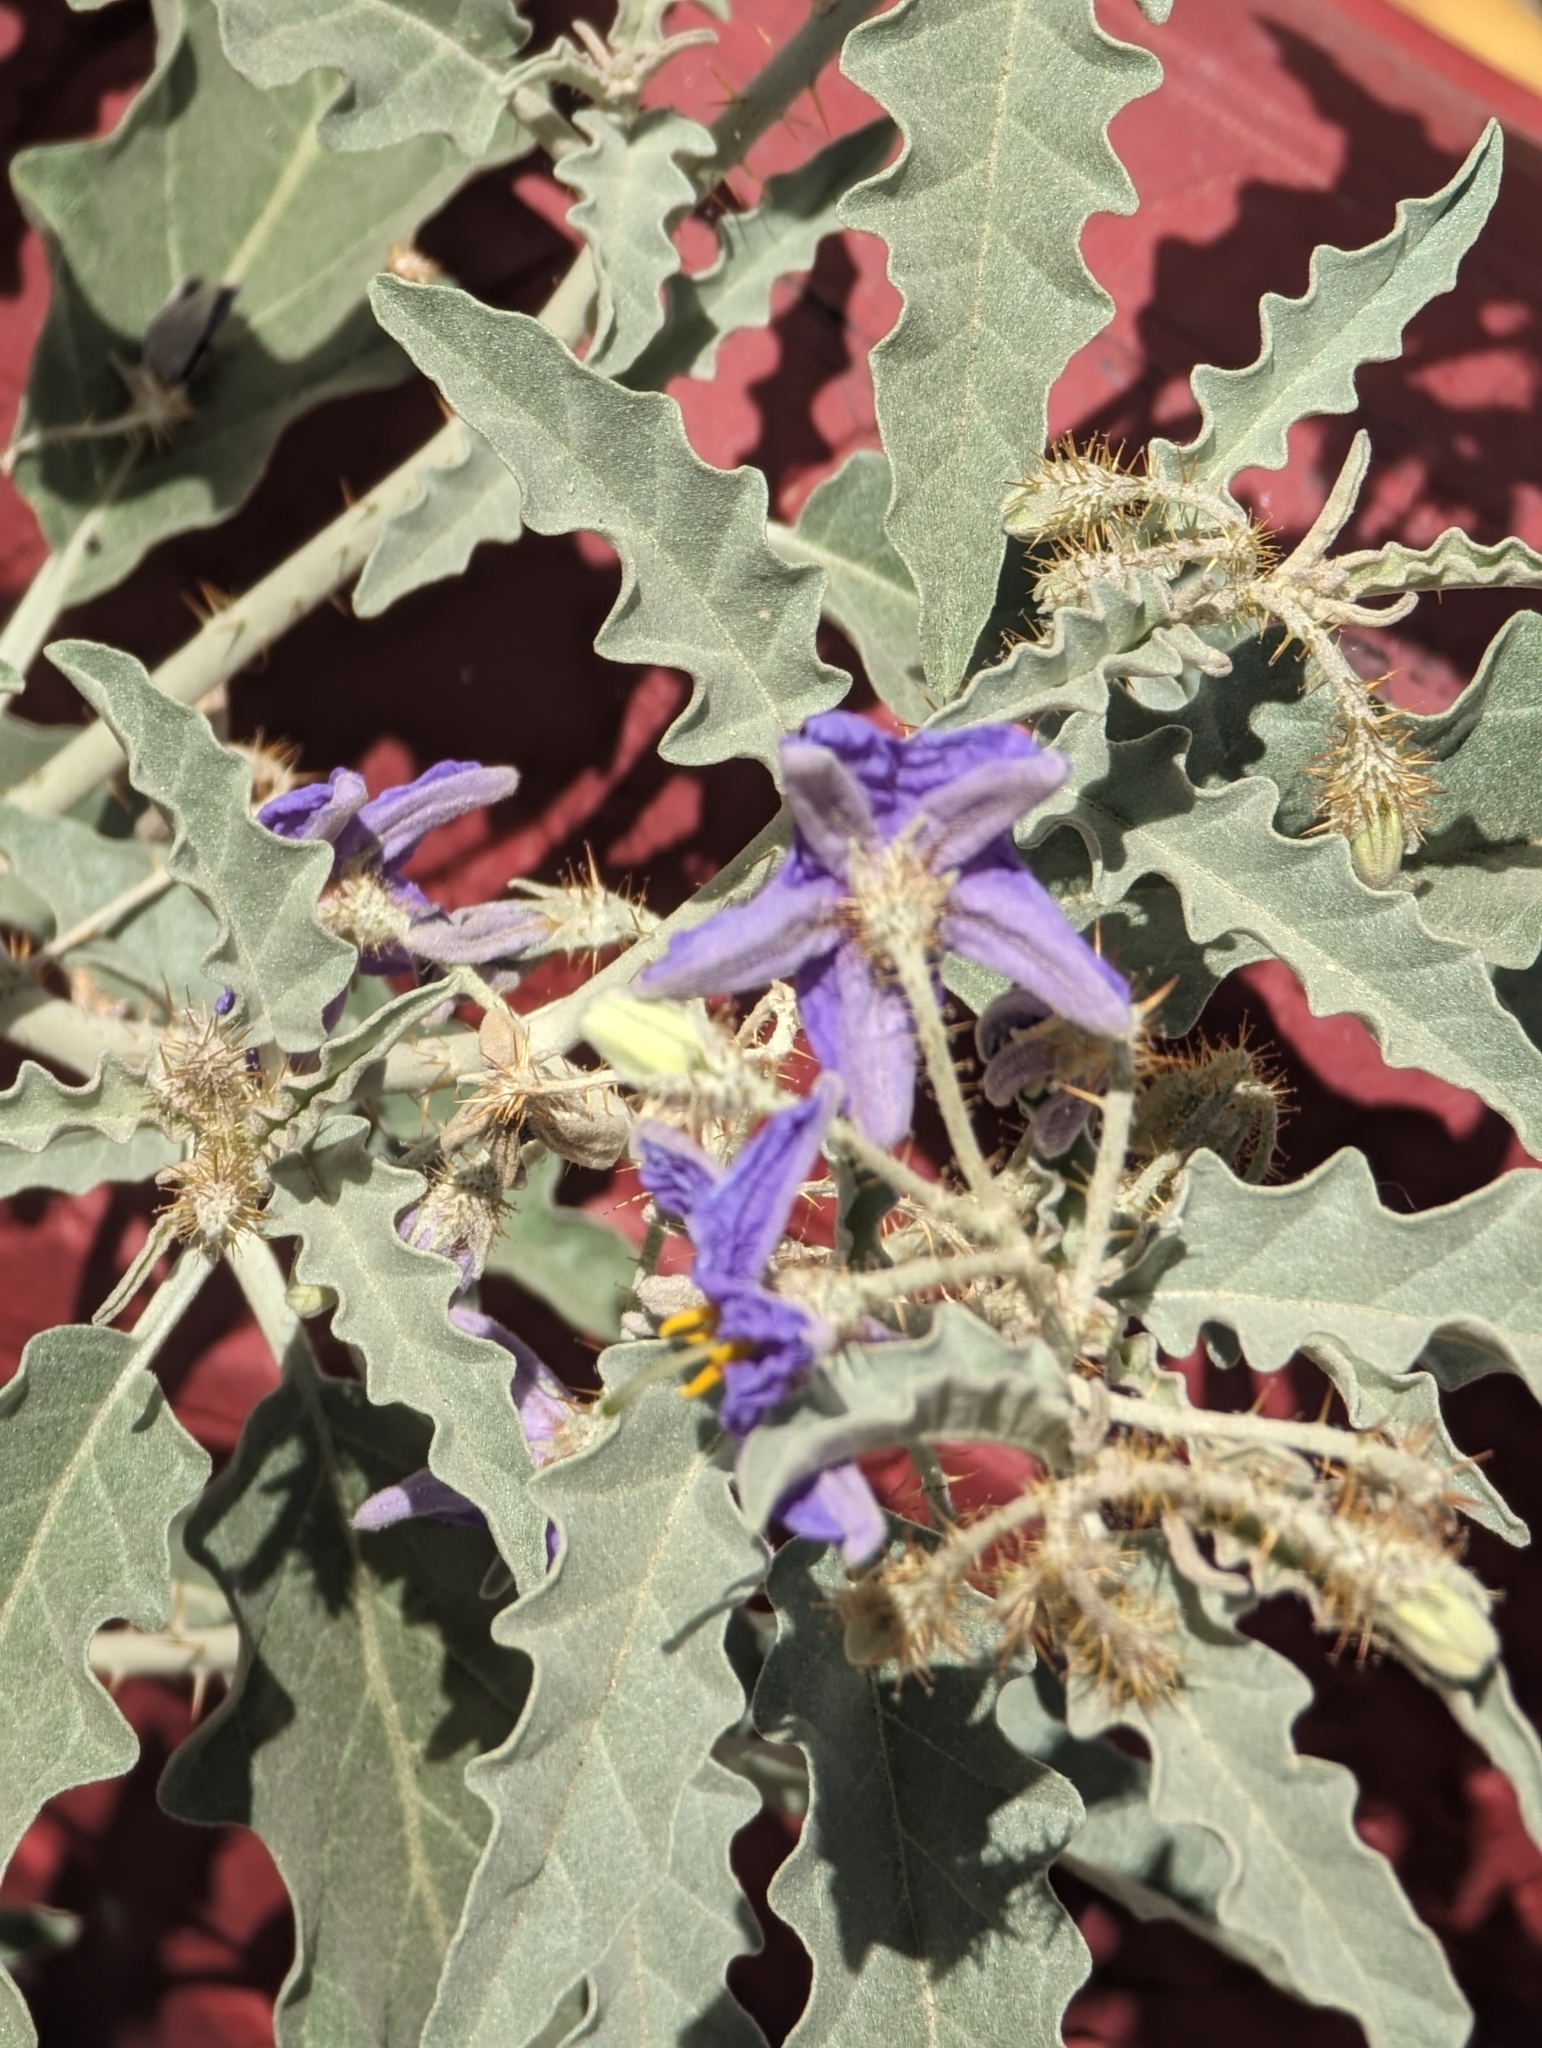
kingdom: Plantae
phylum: Tracheophyta
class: Magnoliopsida
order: Solanales
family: Solanaceae
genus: Solanum
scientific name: Solanum elaeagnifolium
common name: Silverleaf nightshade
